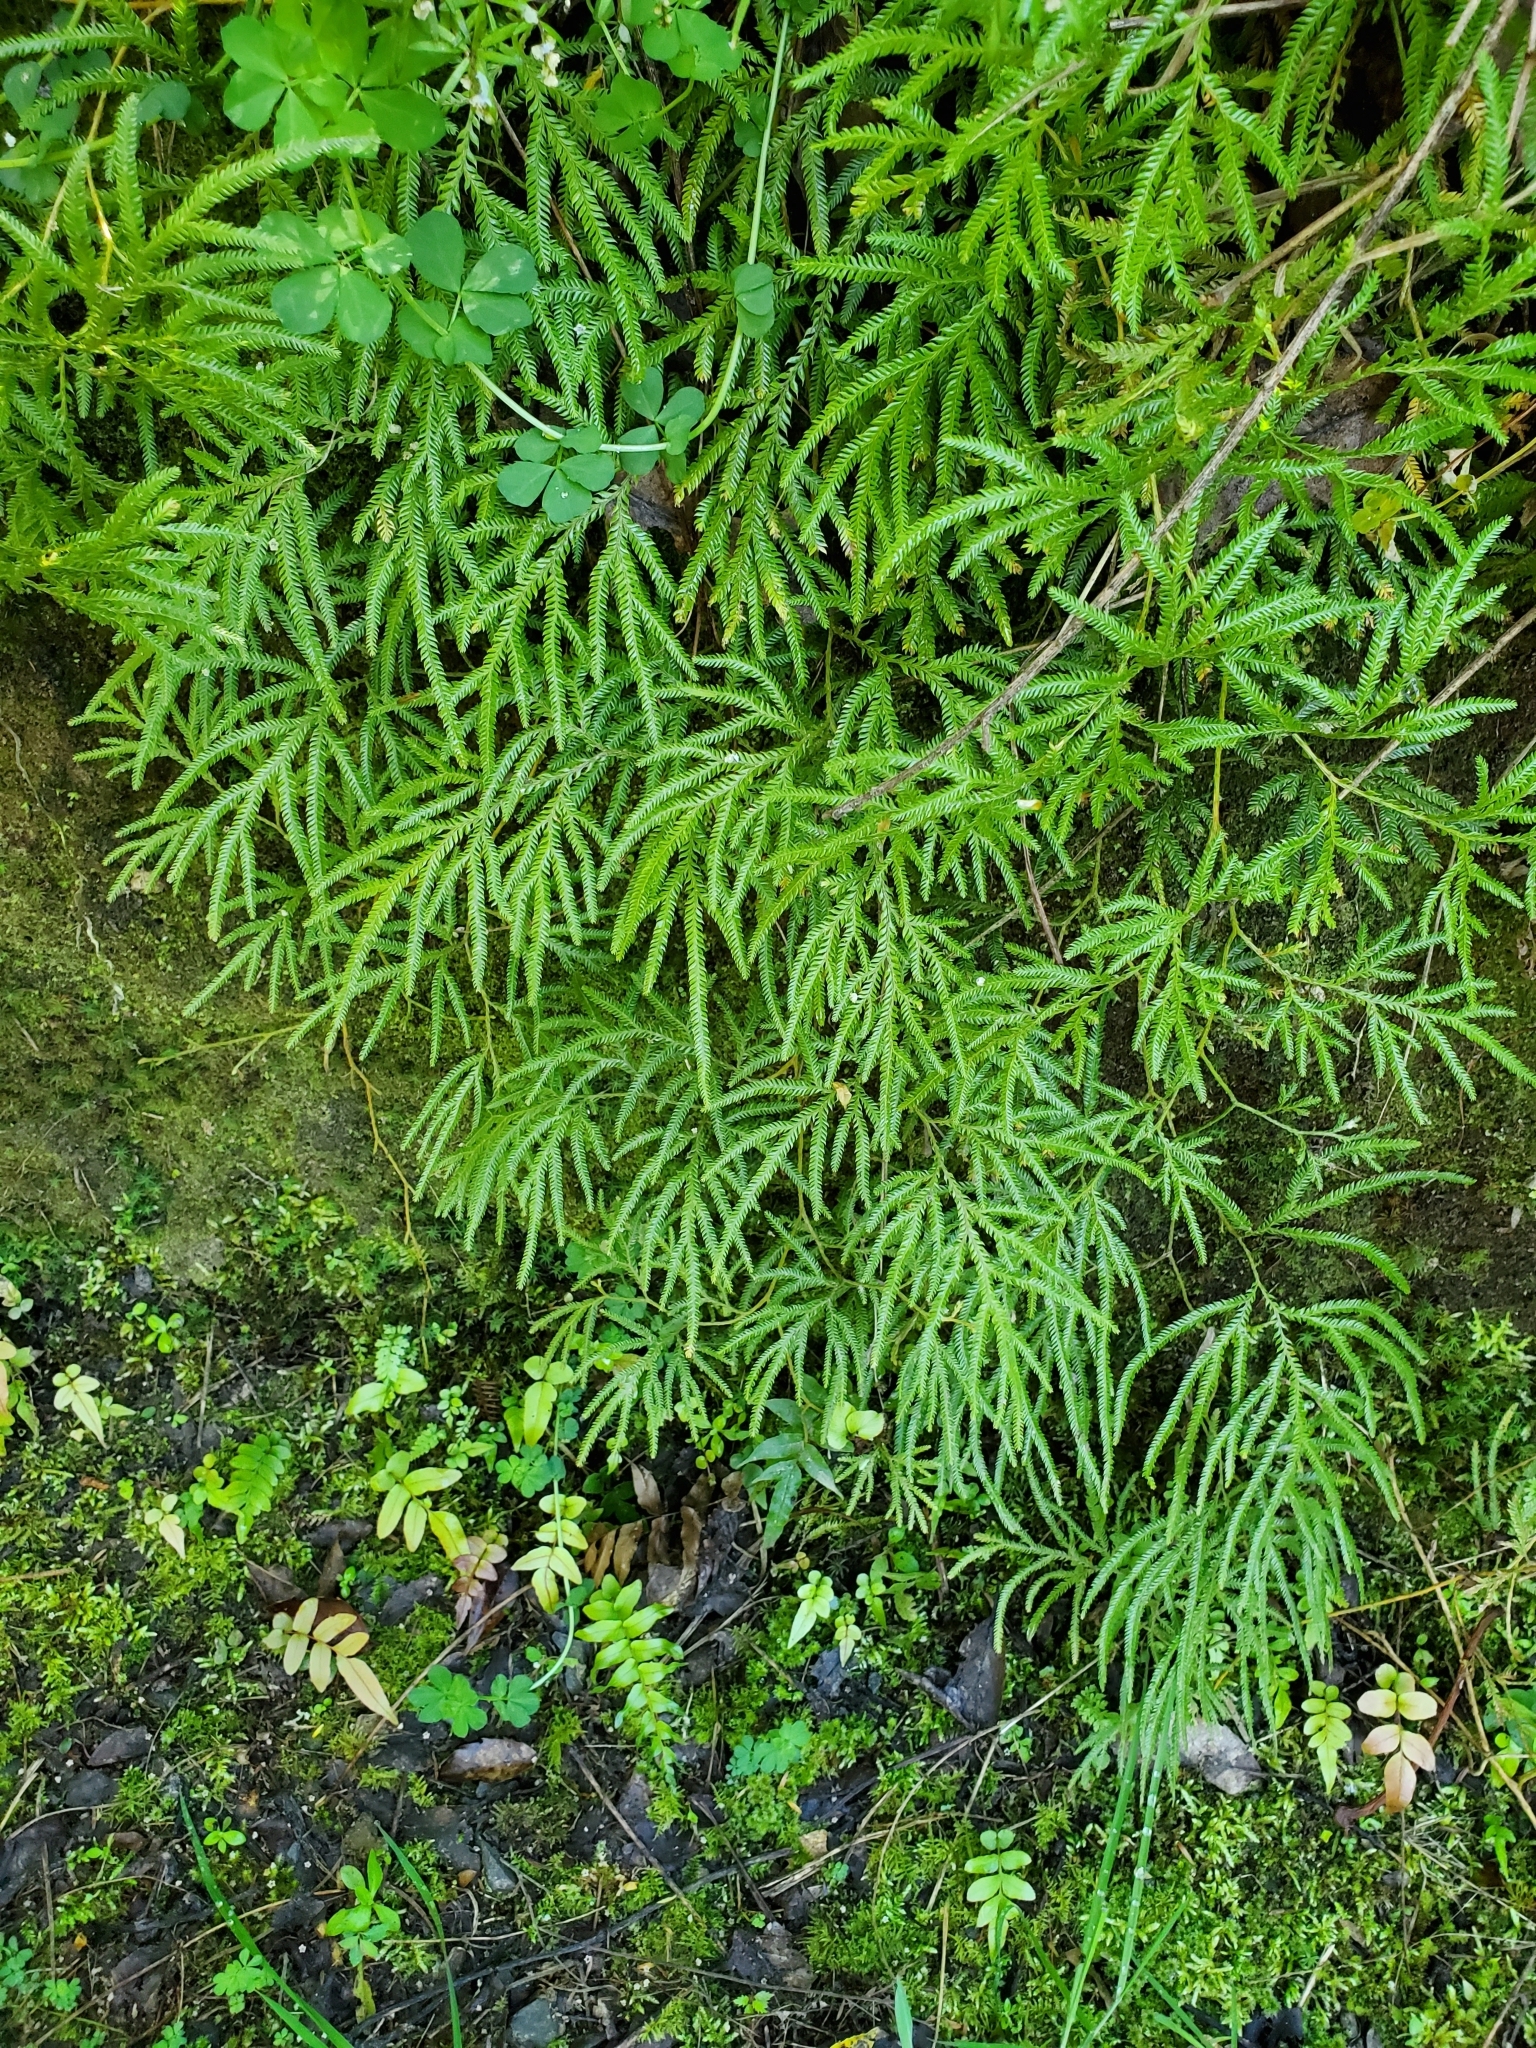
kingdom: Plantae
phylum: Tracheophyta
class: Lycopodiopsida
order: Lycopodiales
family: Lycopodiaceae
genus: Lycopodium
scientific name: Lycopodium volubile
